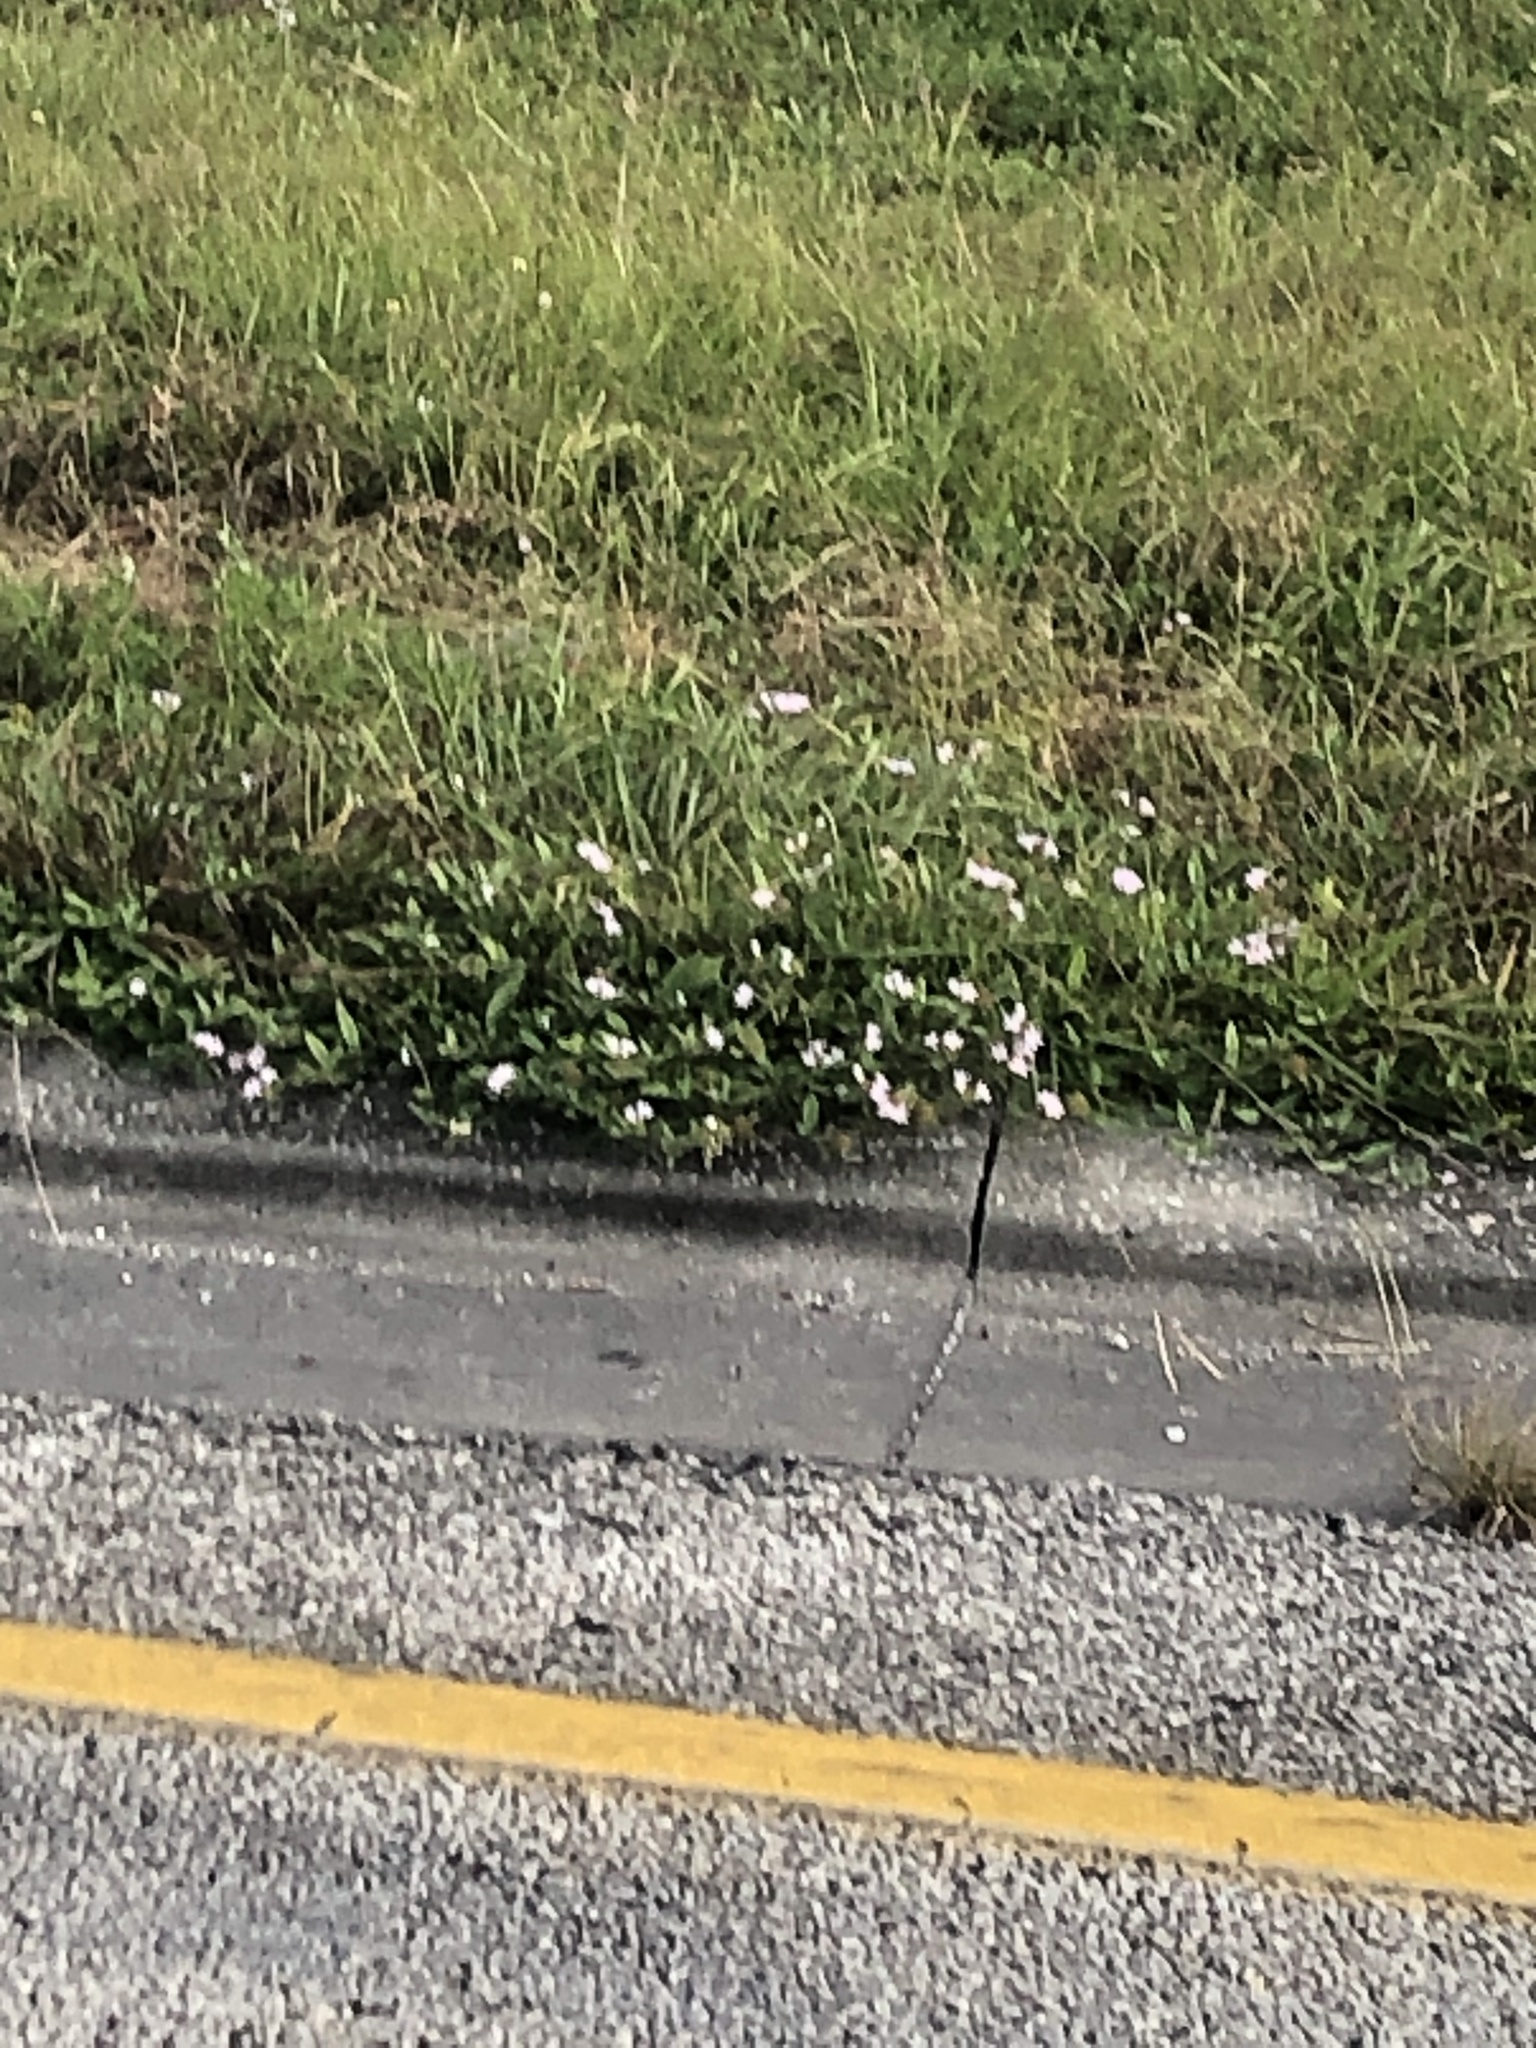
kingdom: Plantae
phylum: Tracheophyta
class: Magnoliopsida
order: Gentianales
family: Rubiaceae
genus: Richardia
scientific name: Richardia grandiflora
